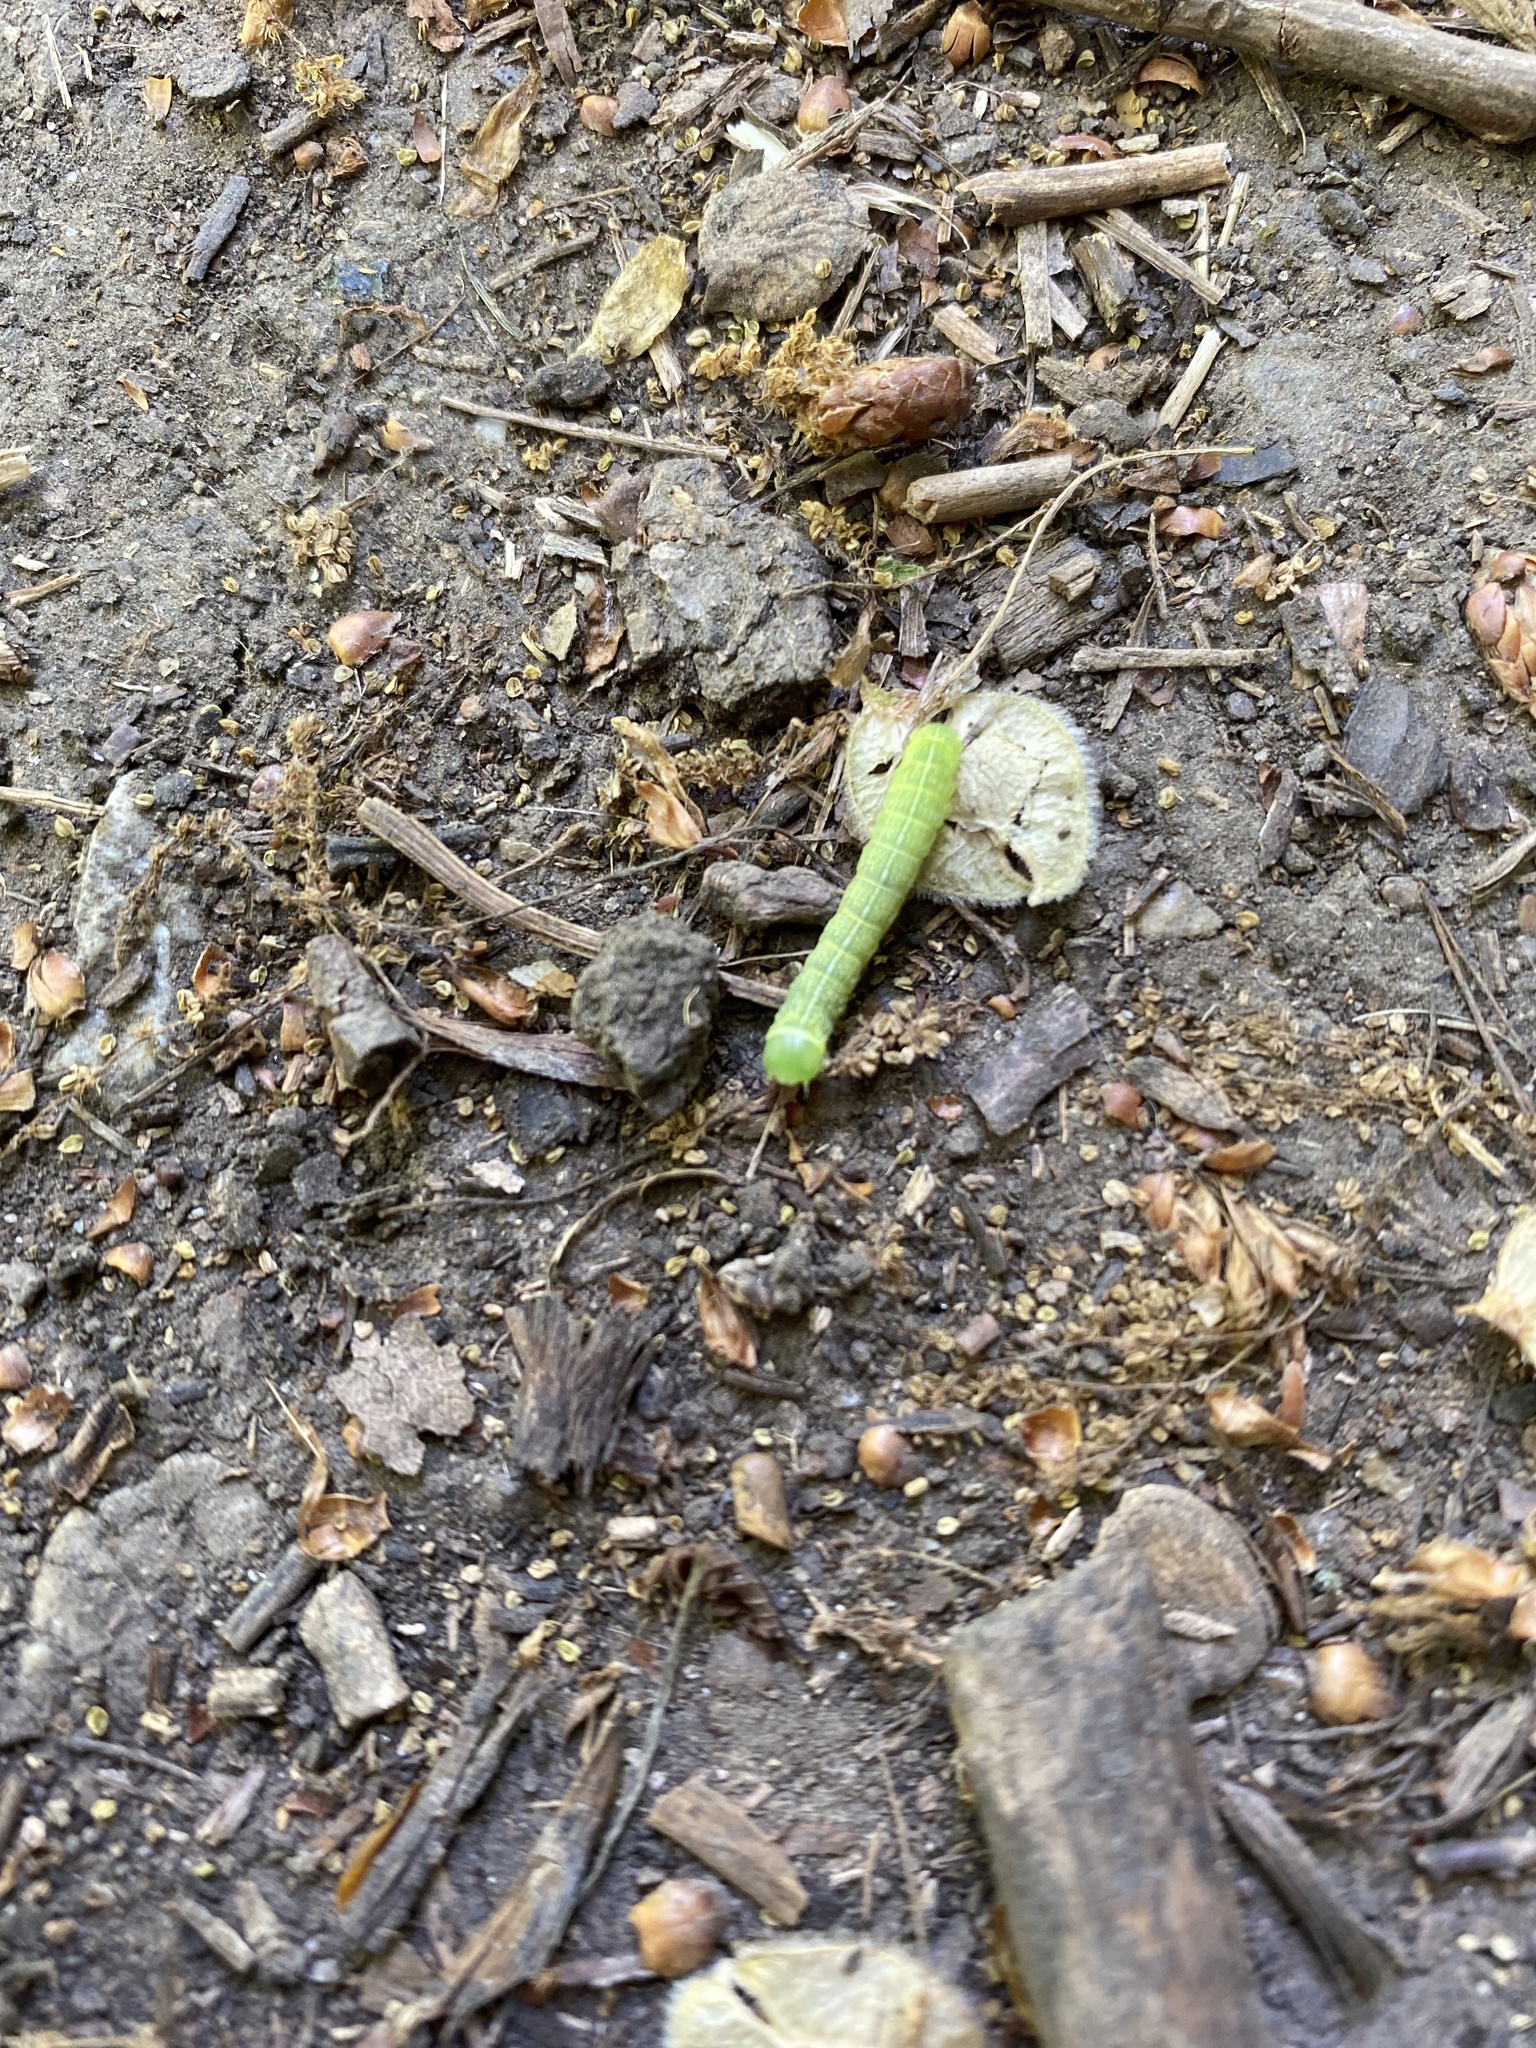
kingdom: Animalia
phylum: Arthropoda
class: Insecta
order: Lepidoptera
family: Noctuidae
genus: Orthosia
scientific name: Orthosia cerasi
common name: Common quaker
